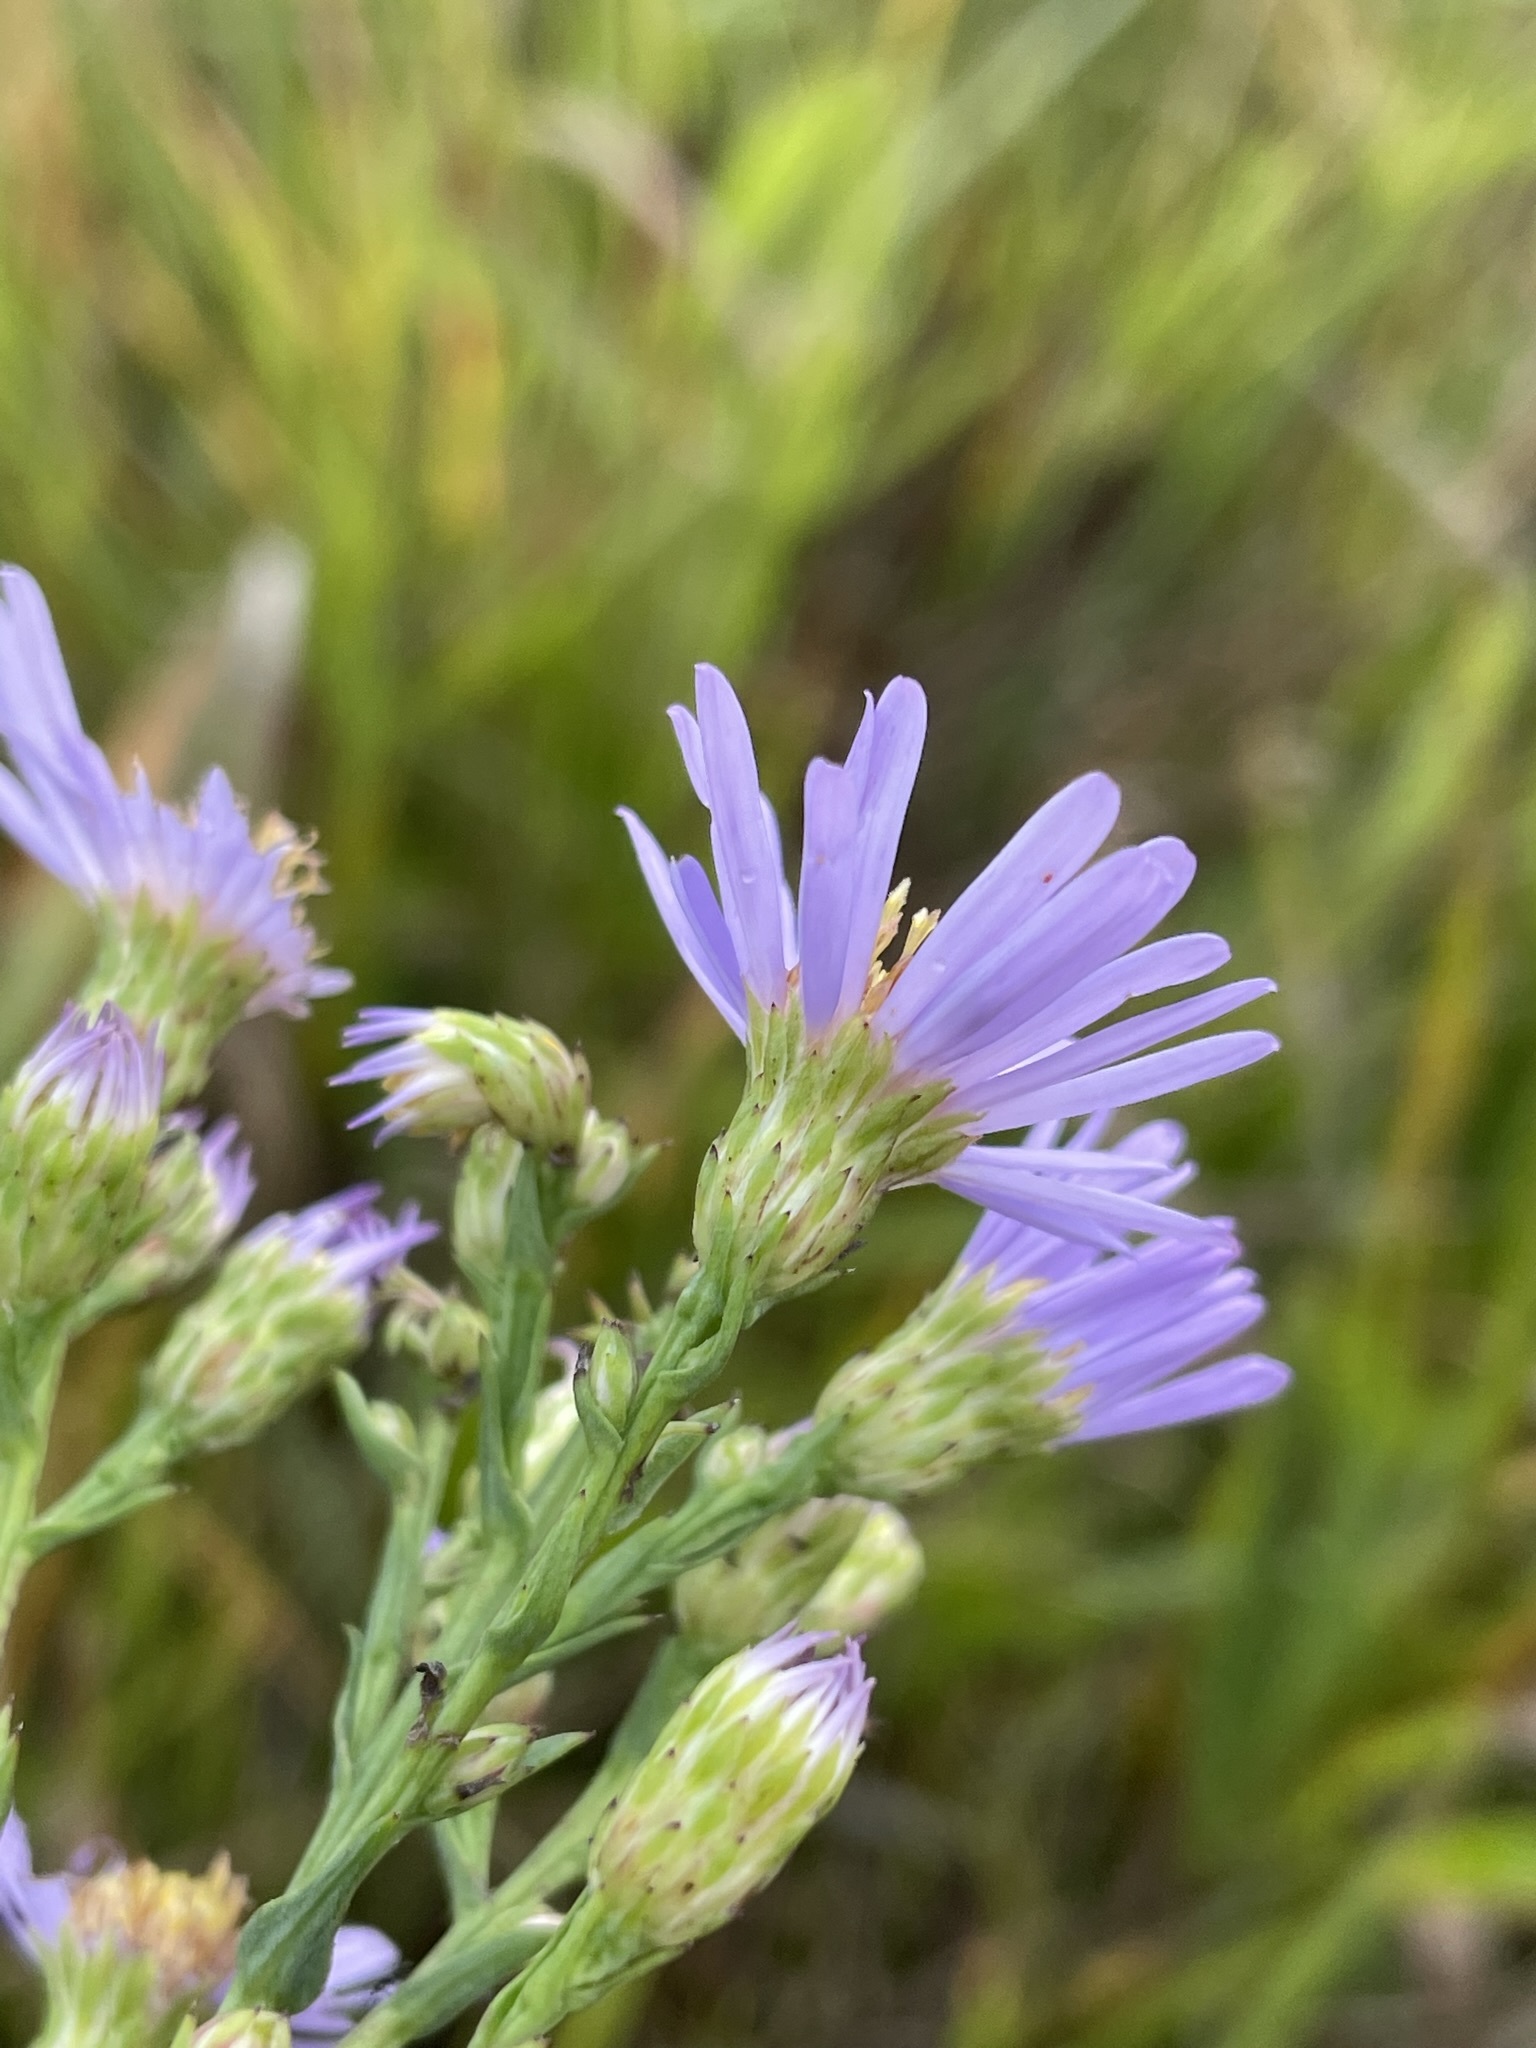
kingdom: Plantae
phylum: Tracheophyta
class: Magnoliopsida
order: Asterales
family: Asteraceae
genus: Symphyotrichum
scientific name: Symphyotrichum laeve
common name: Glaucous aster
